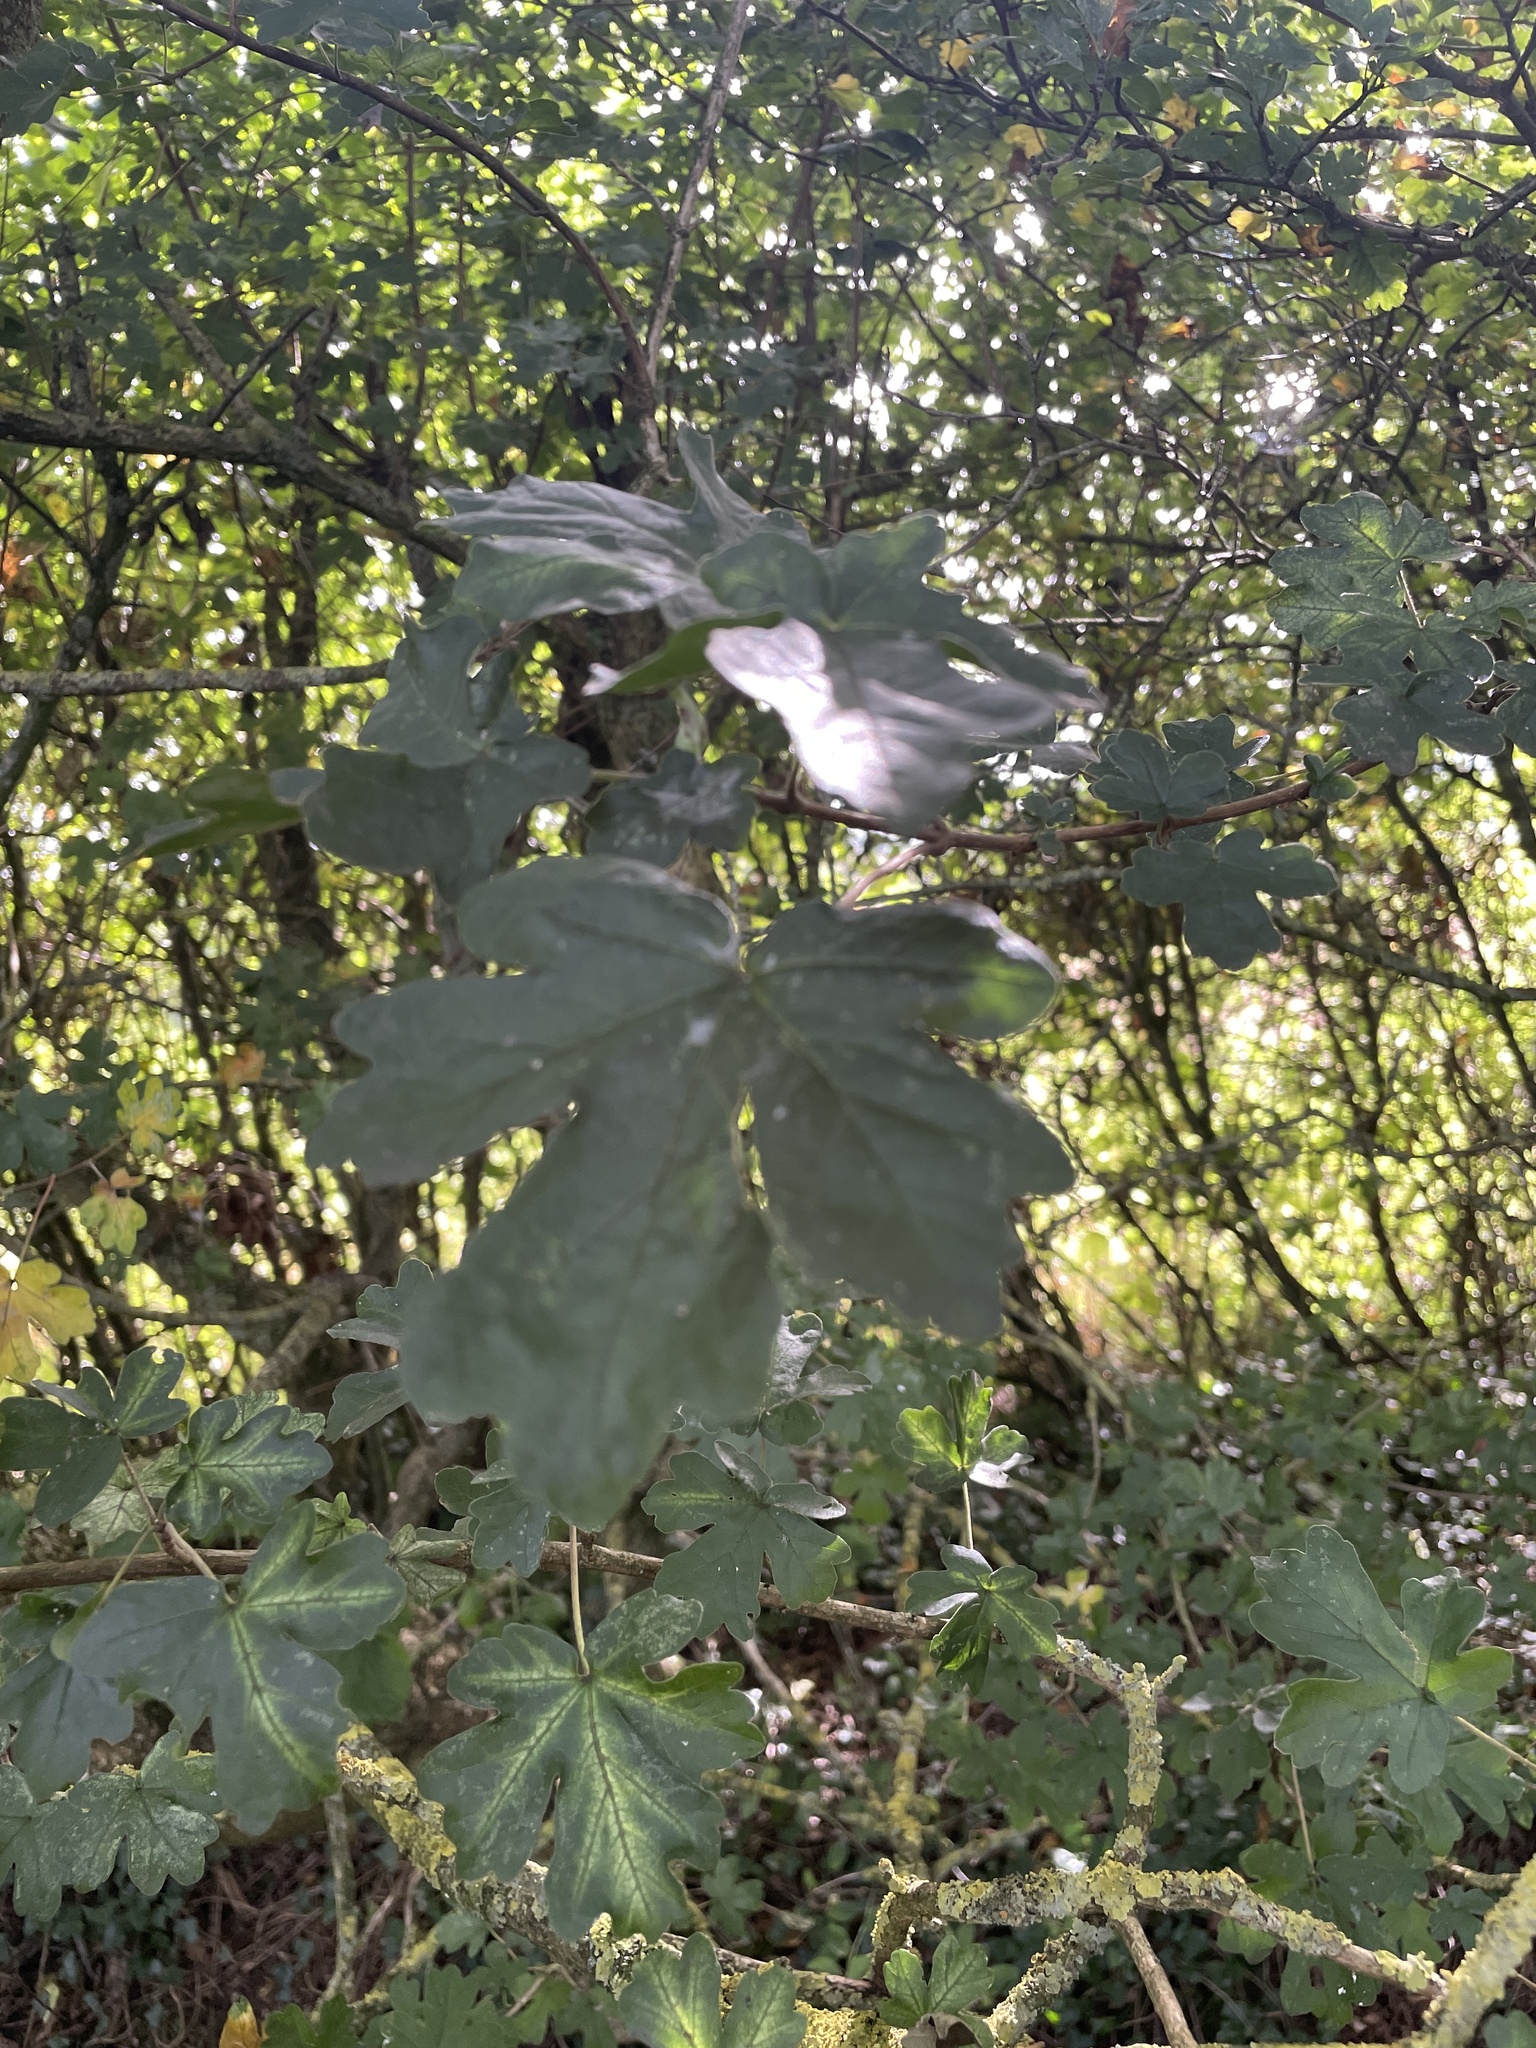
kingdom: Plantae
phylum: Tracheophyta
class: Magnoliopsida
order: Sapindales
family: Sapindaceae
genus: Acer
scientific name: Acer campestre
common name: Field maple
